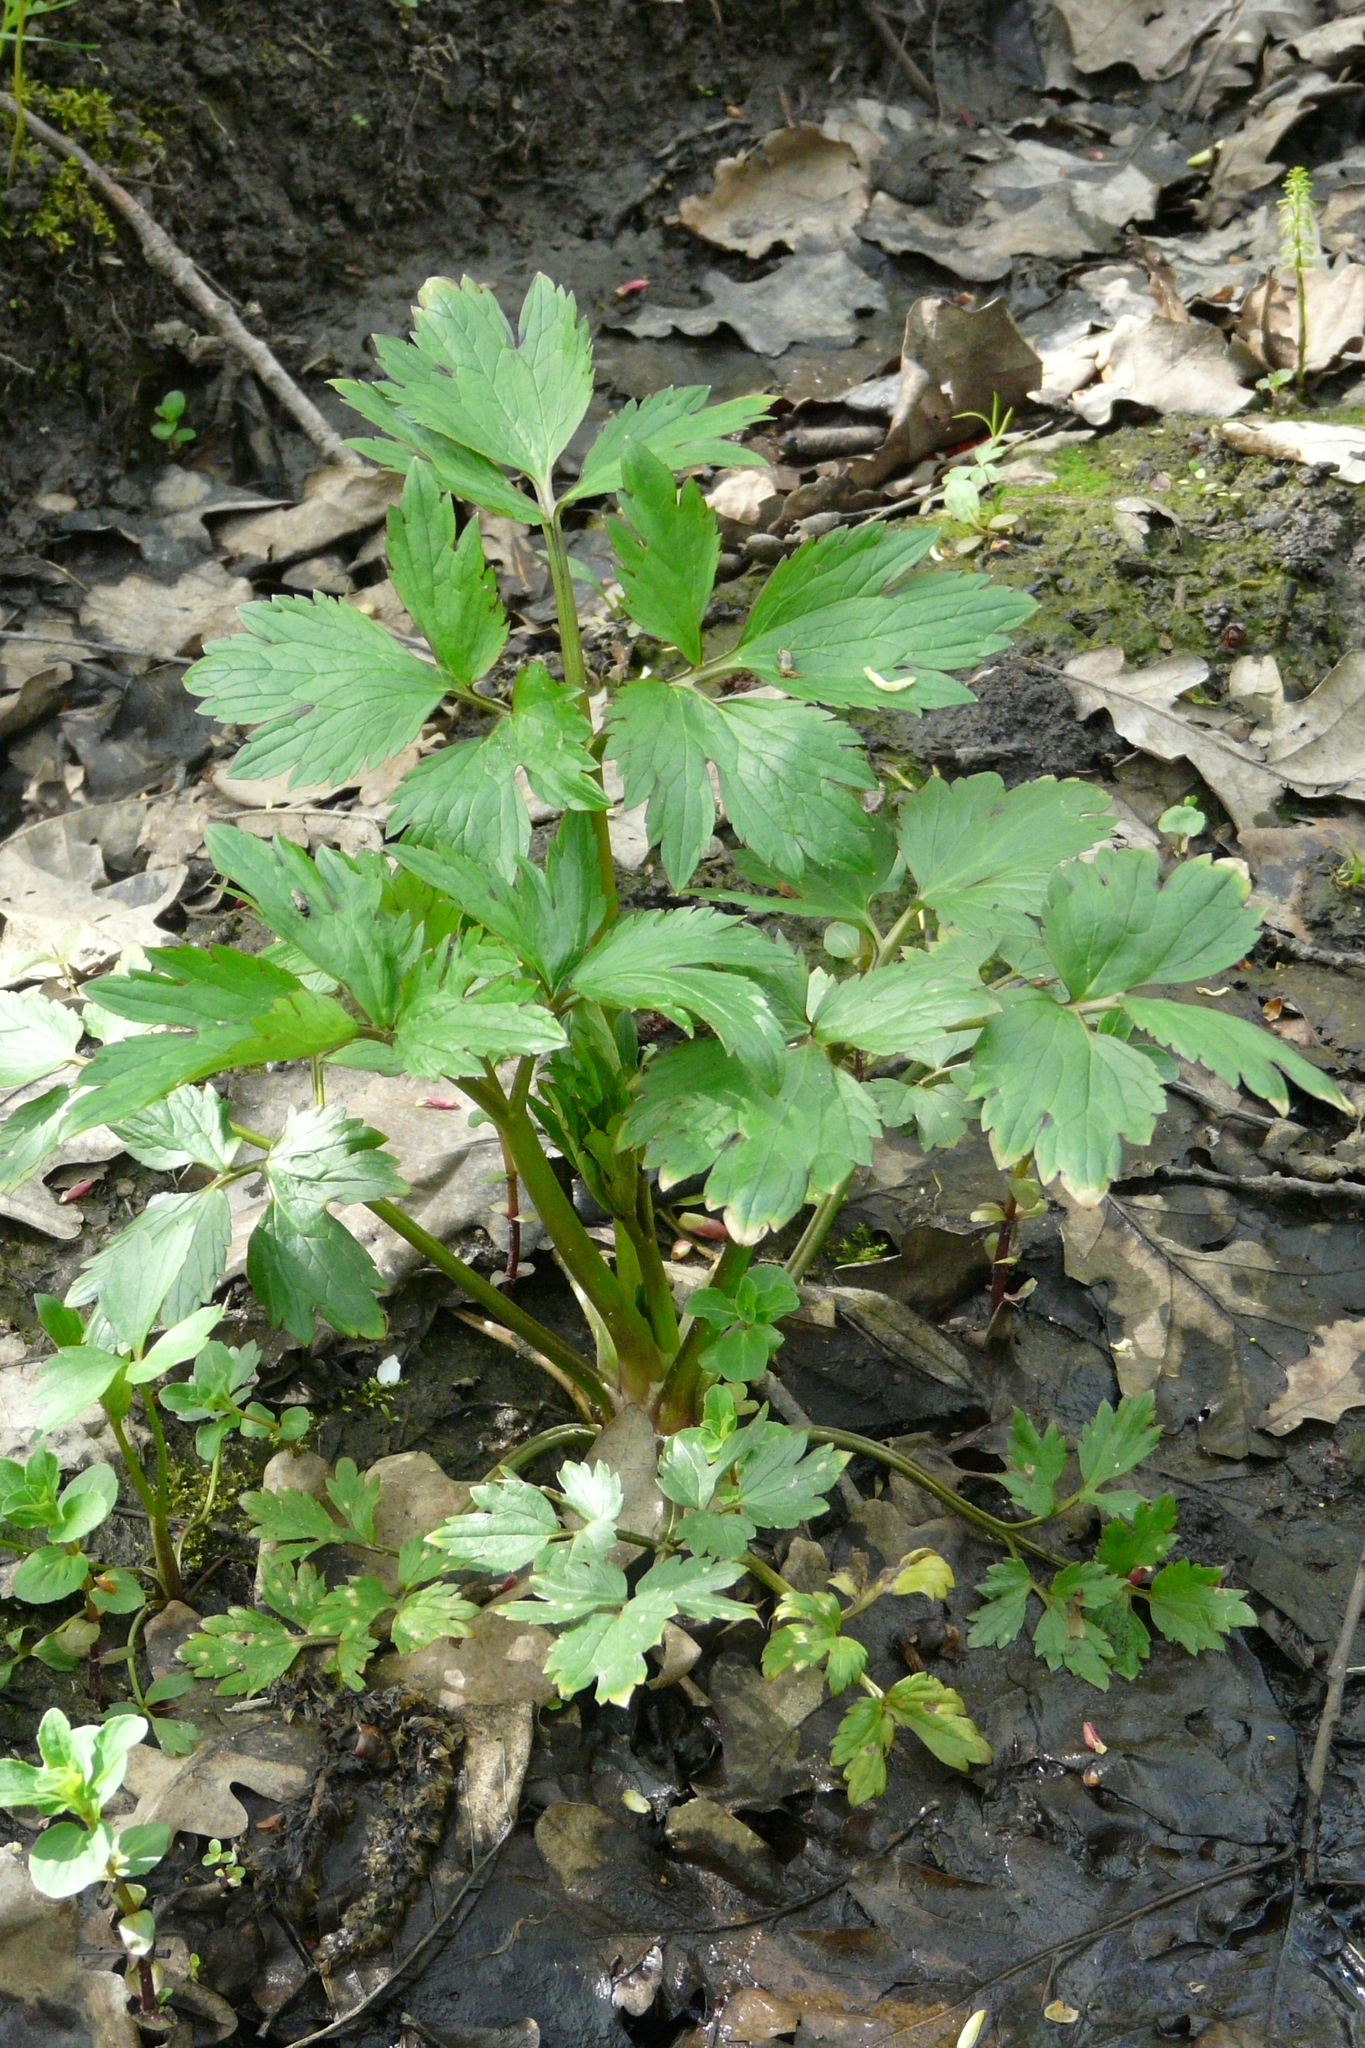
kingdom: Plantae
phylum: Tracheophyta
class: Magnoliopsida
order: Ranunculales
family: Ranunculaceae
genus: Ranunculus
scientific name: Ranunculus repens
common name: Creeping buttercup
